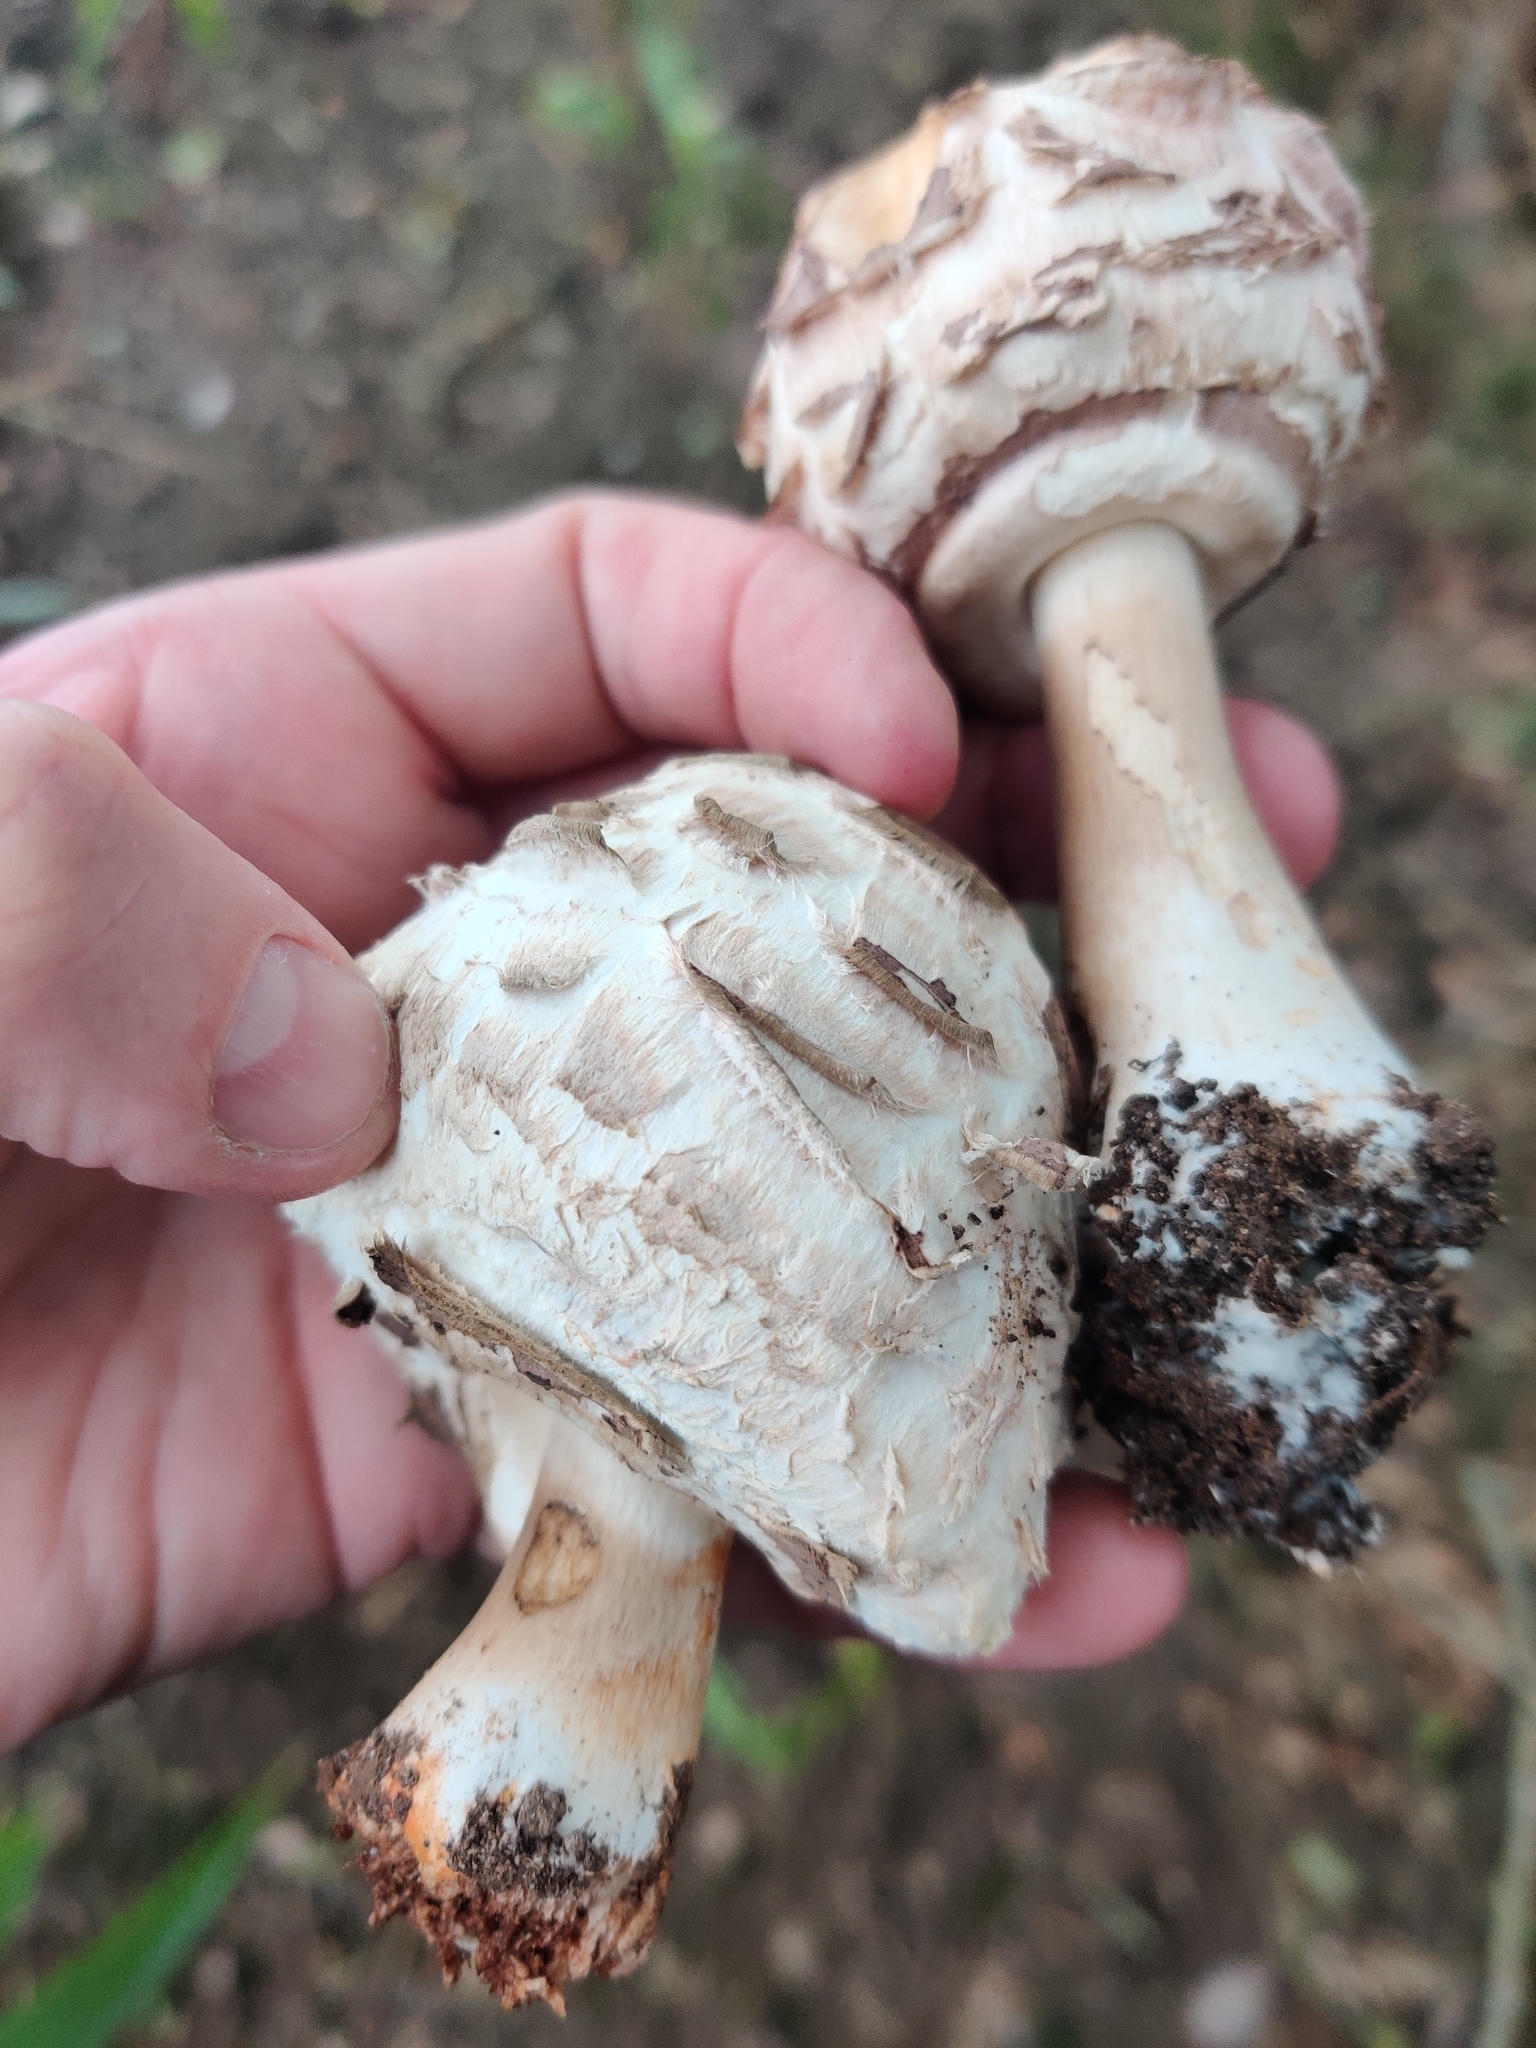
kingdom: Fungi
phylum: Basidiomycota
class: Agaricomycetes
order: Agaricales
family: Agaricaceae
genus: Chlorophyllum
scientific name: Chlorophyllum rhacodes
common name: Shaggy parasol
